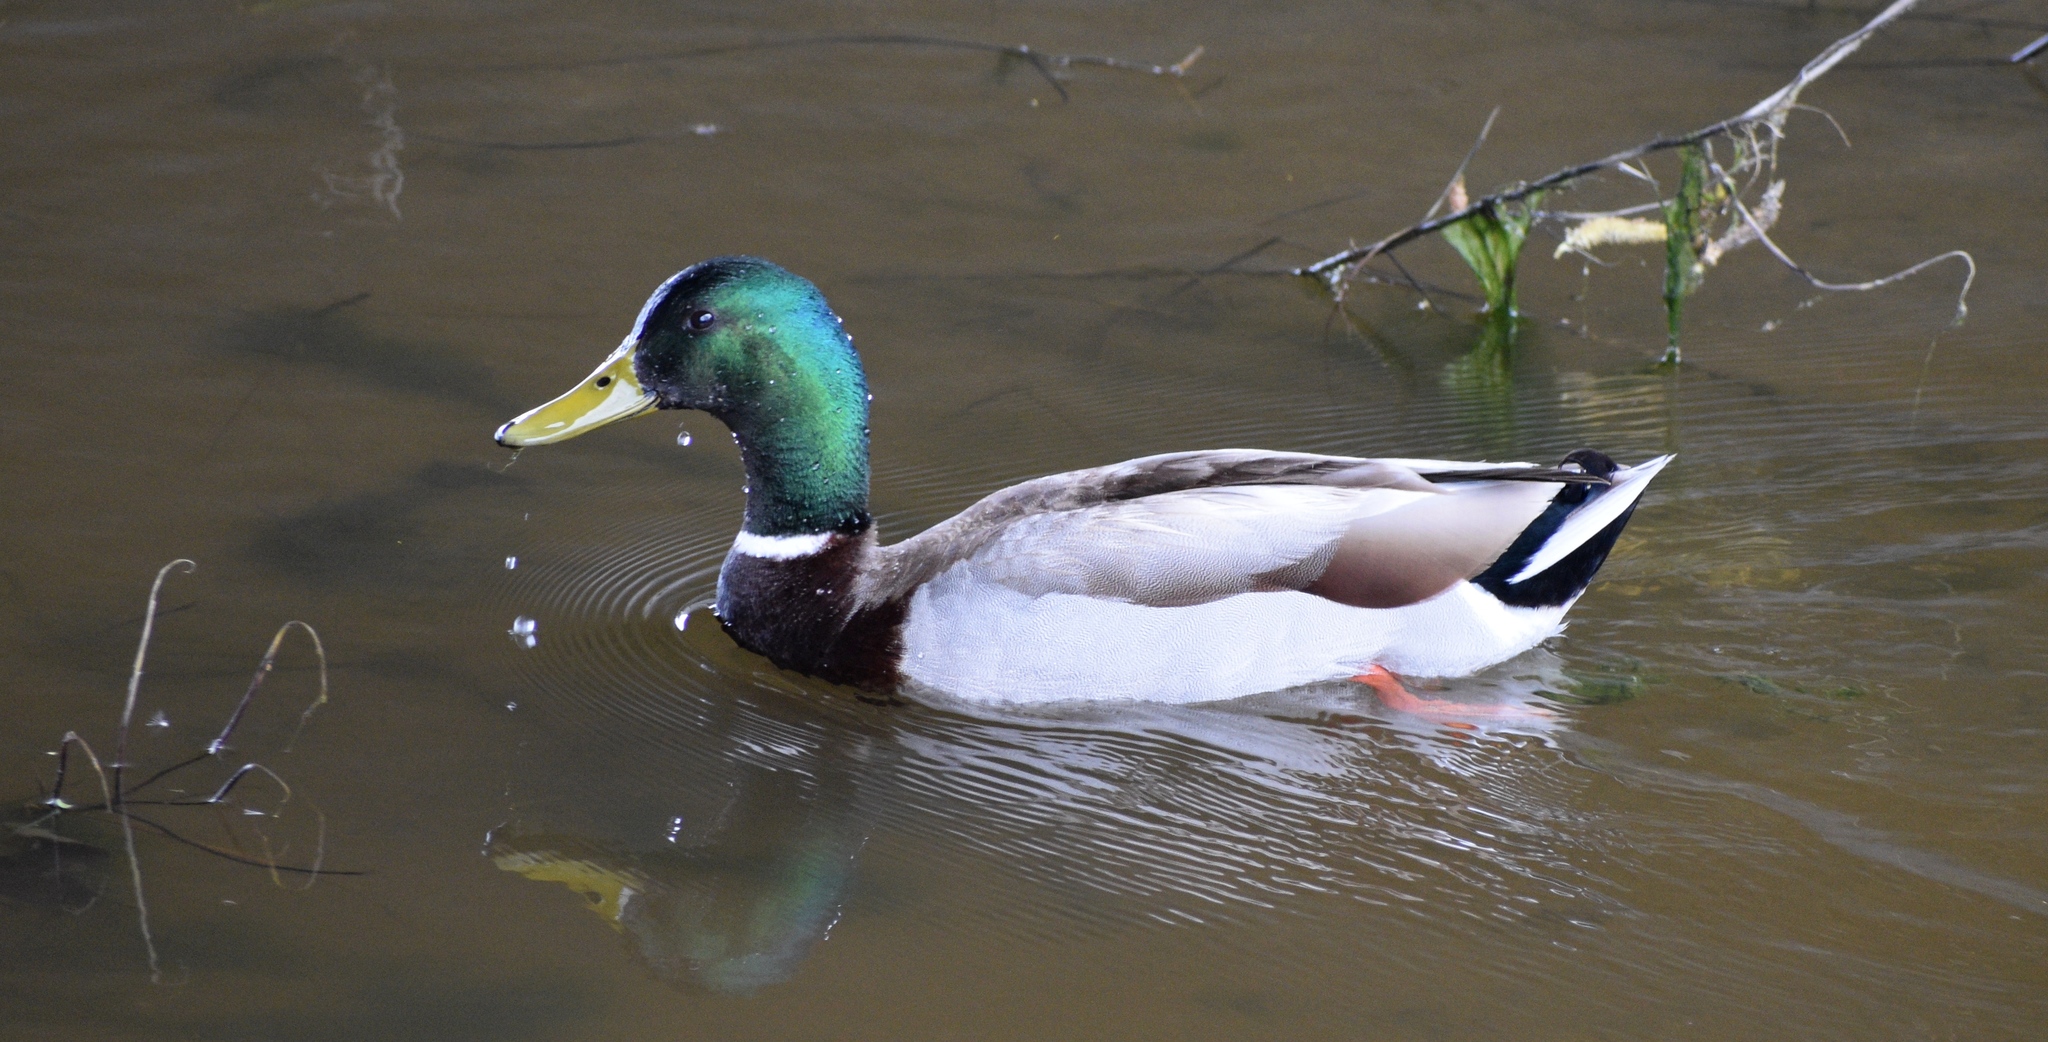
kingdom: Animalia
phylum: Chordata
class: Aves
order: Anseriformes
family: Anatidae
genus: Anas
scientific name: Anas platyrhynchos
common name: Mallard
